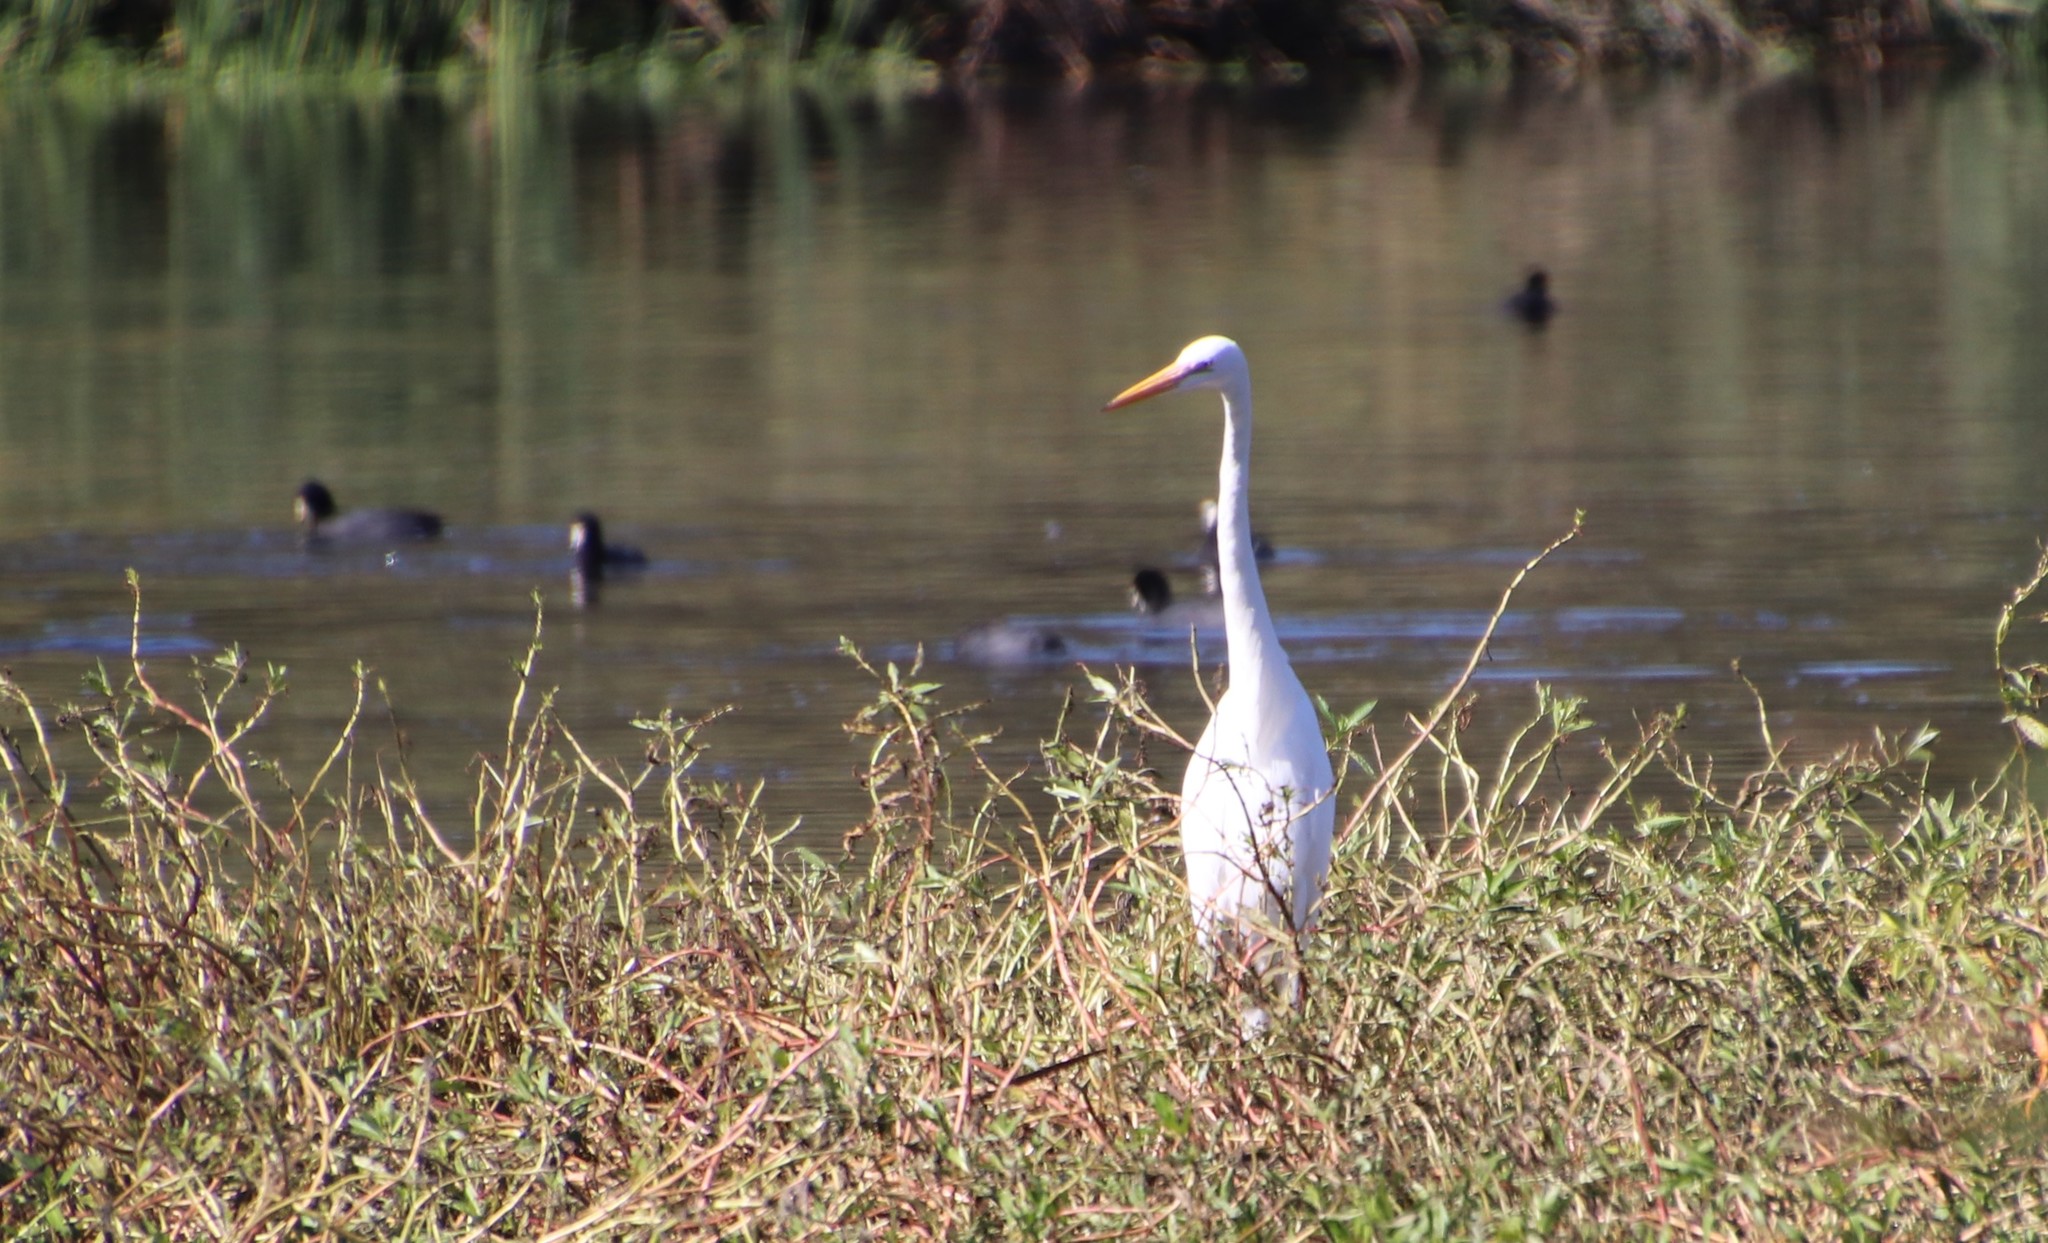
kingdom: Animalia
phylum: Chordata
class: Aves
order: Pelecaniformes
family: Ardeidae
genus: Ardea
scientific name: Ardea alba
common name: Great egret
